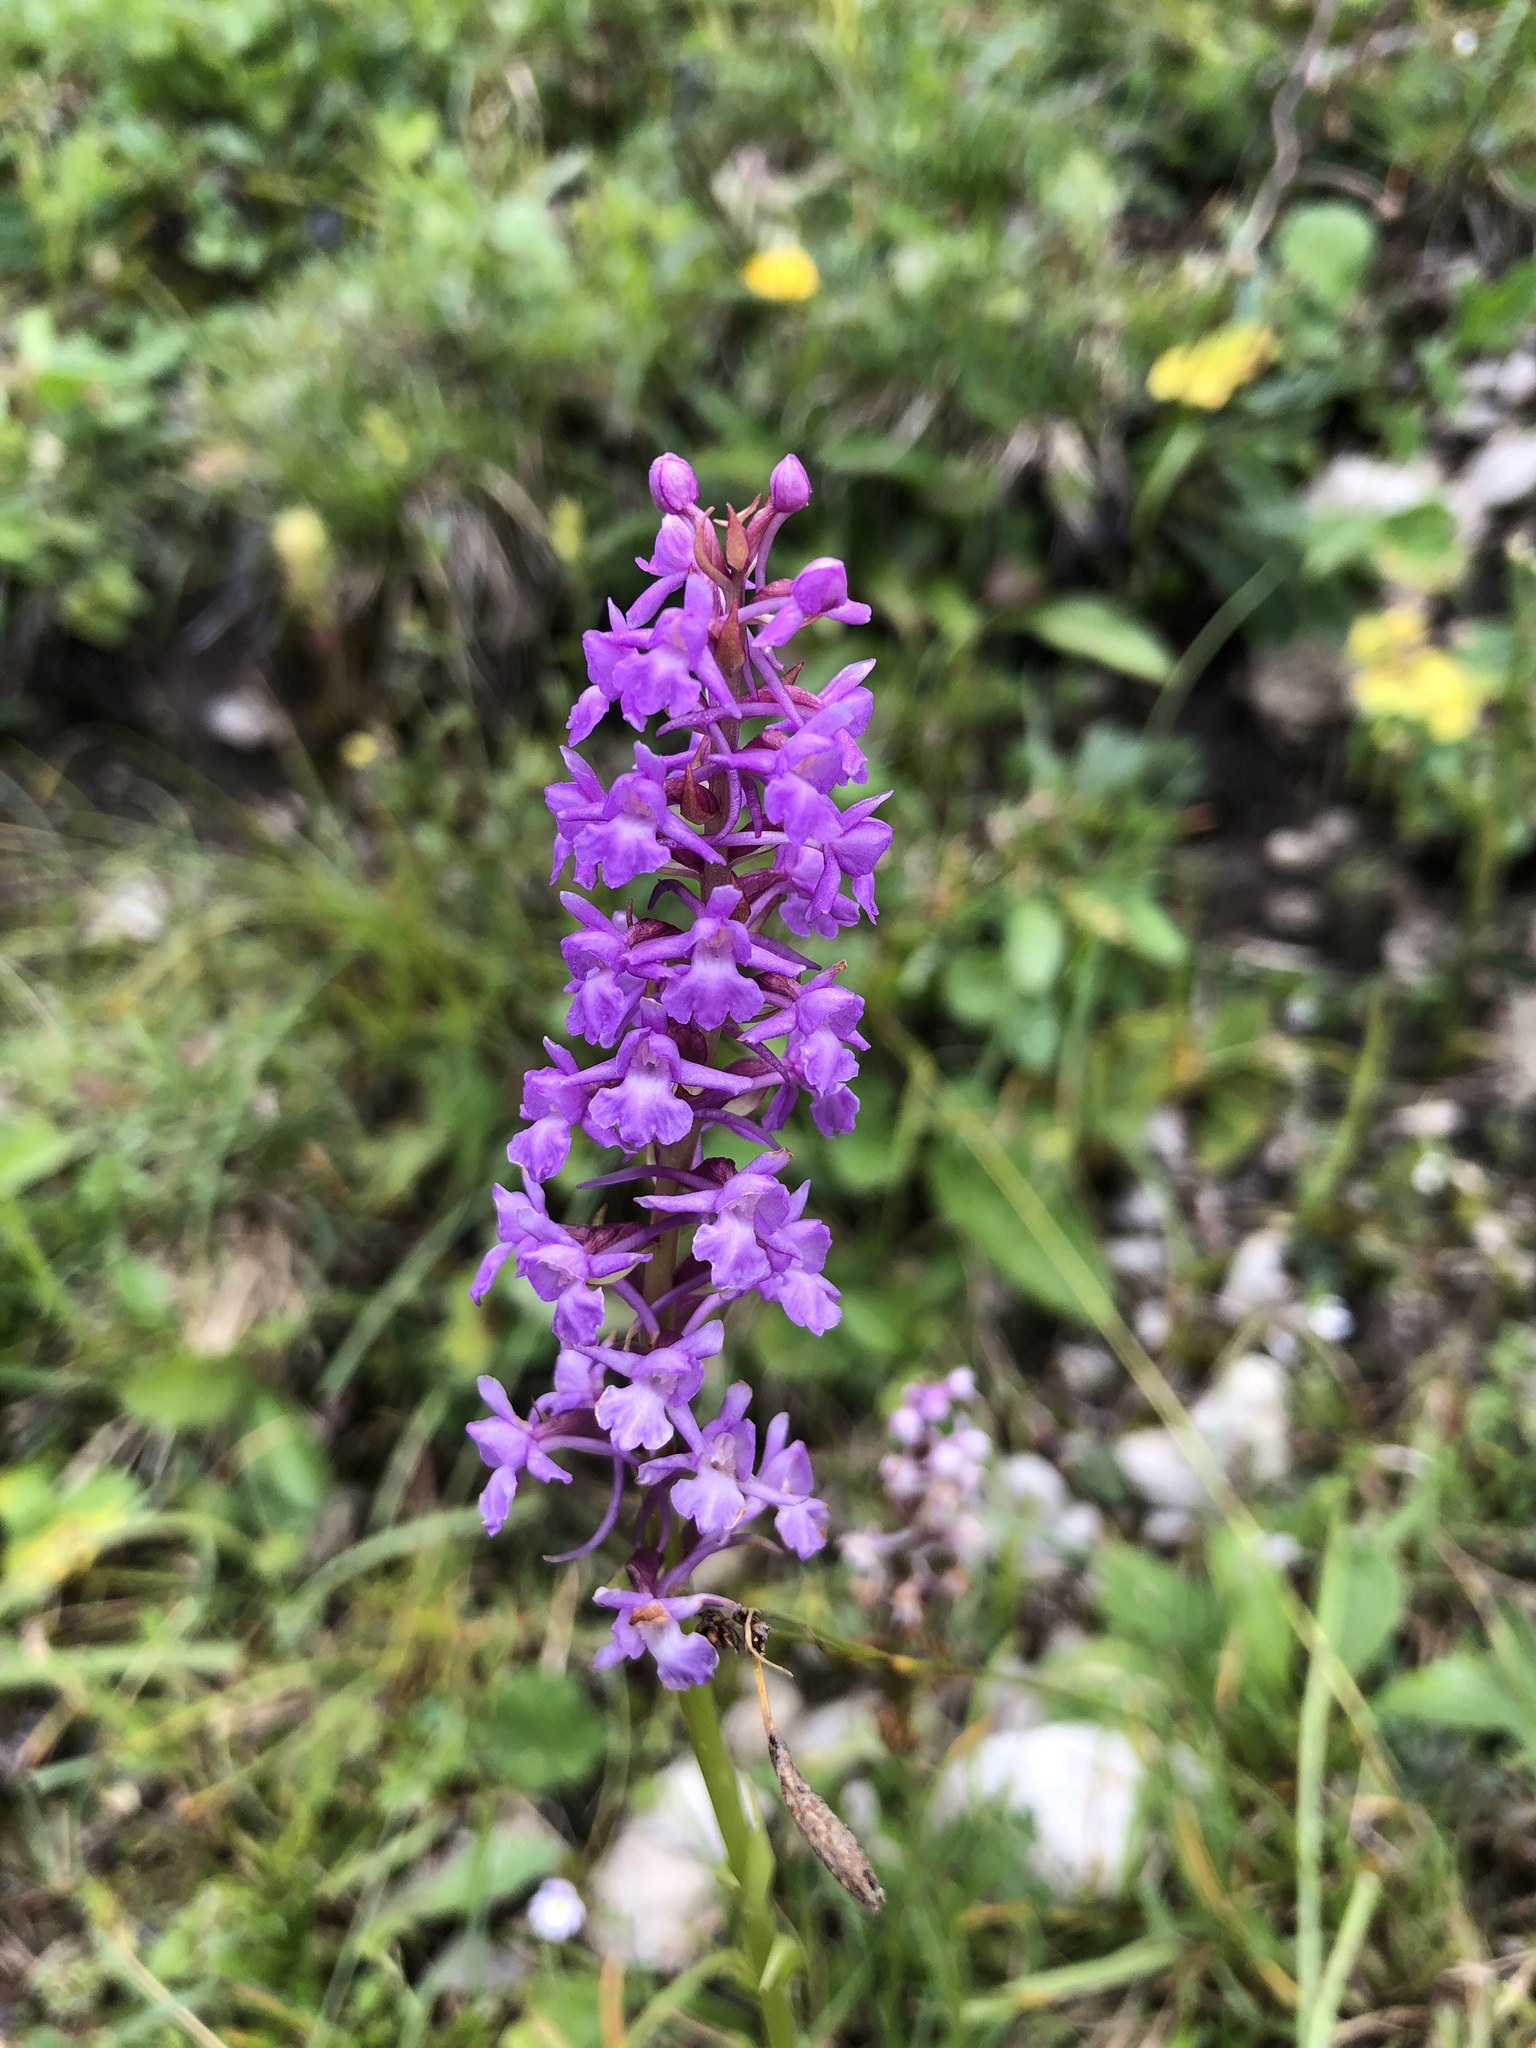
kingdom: Plantae
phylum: Tracheophyta
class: Liliopsida
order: Asparagales
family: Orchidaceae
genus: Gymnadenia
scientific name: Gymnadenia conopsea
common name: Fragrant orchid
